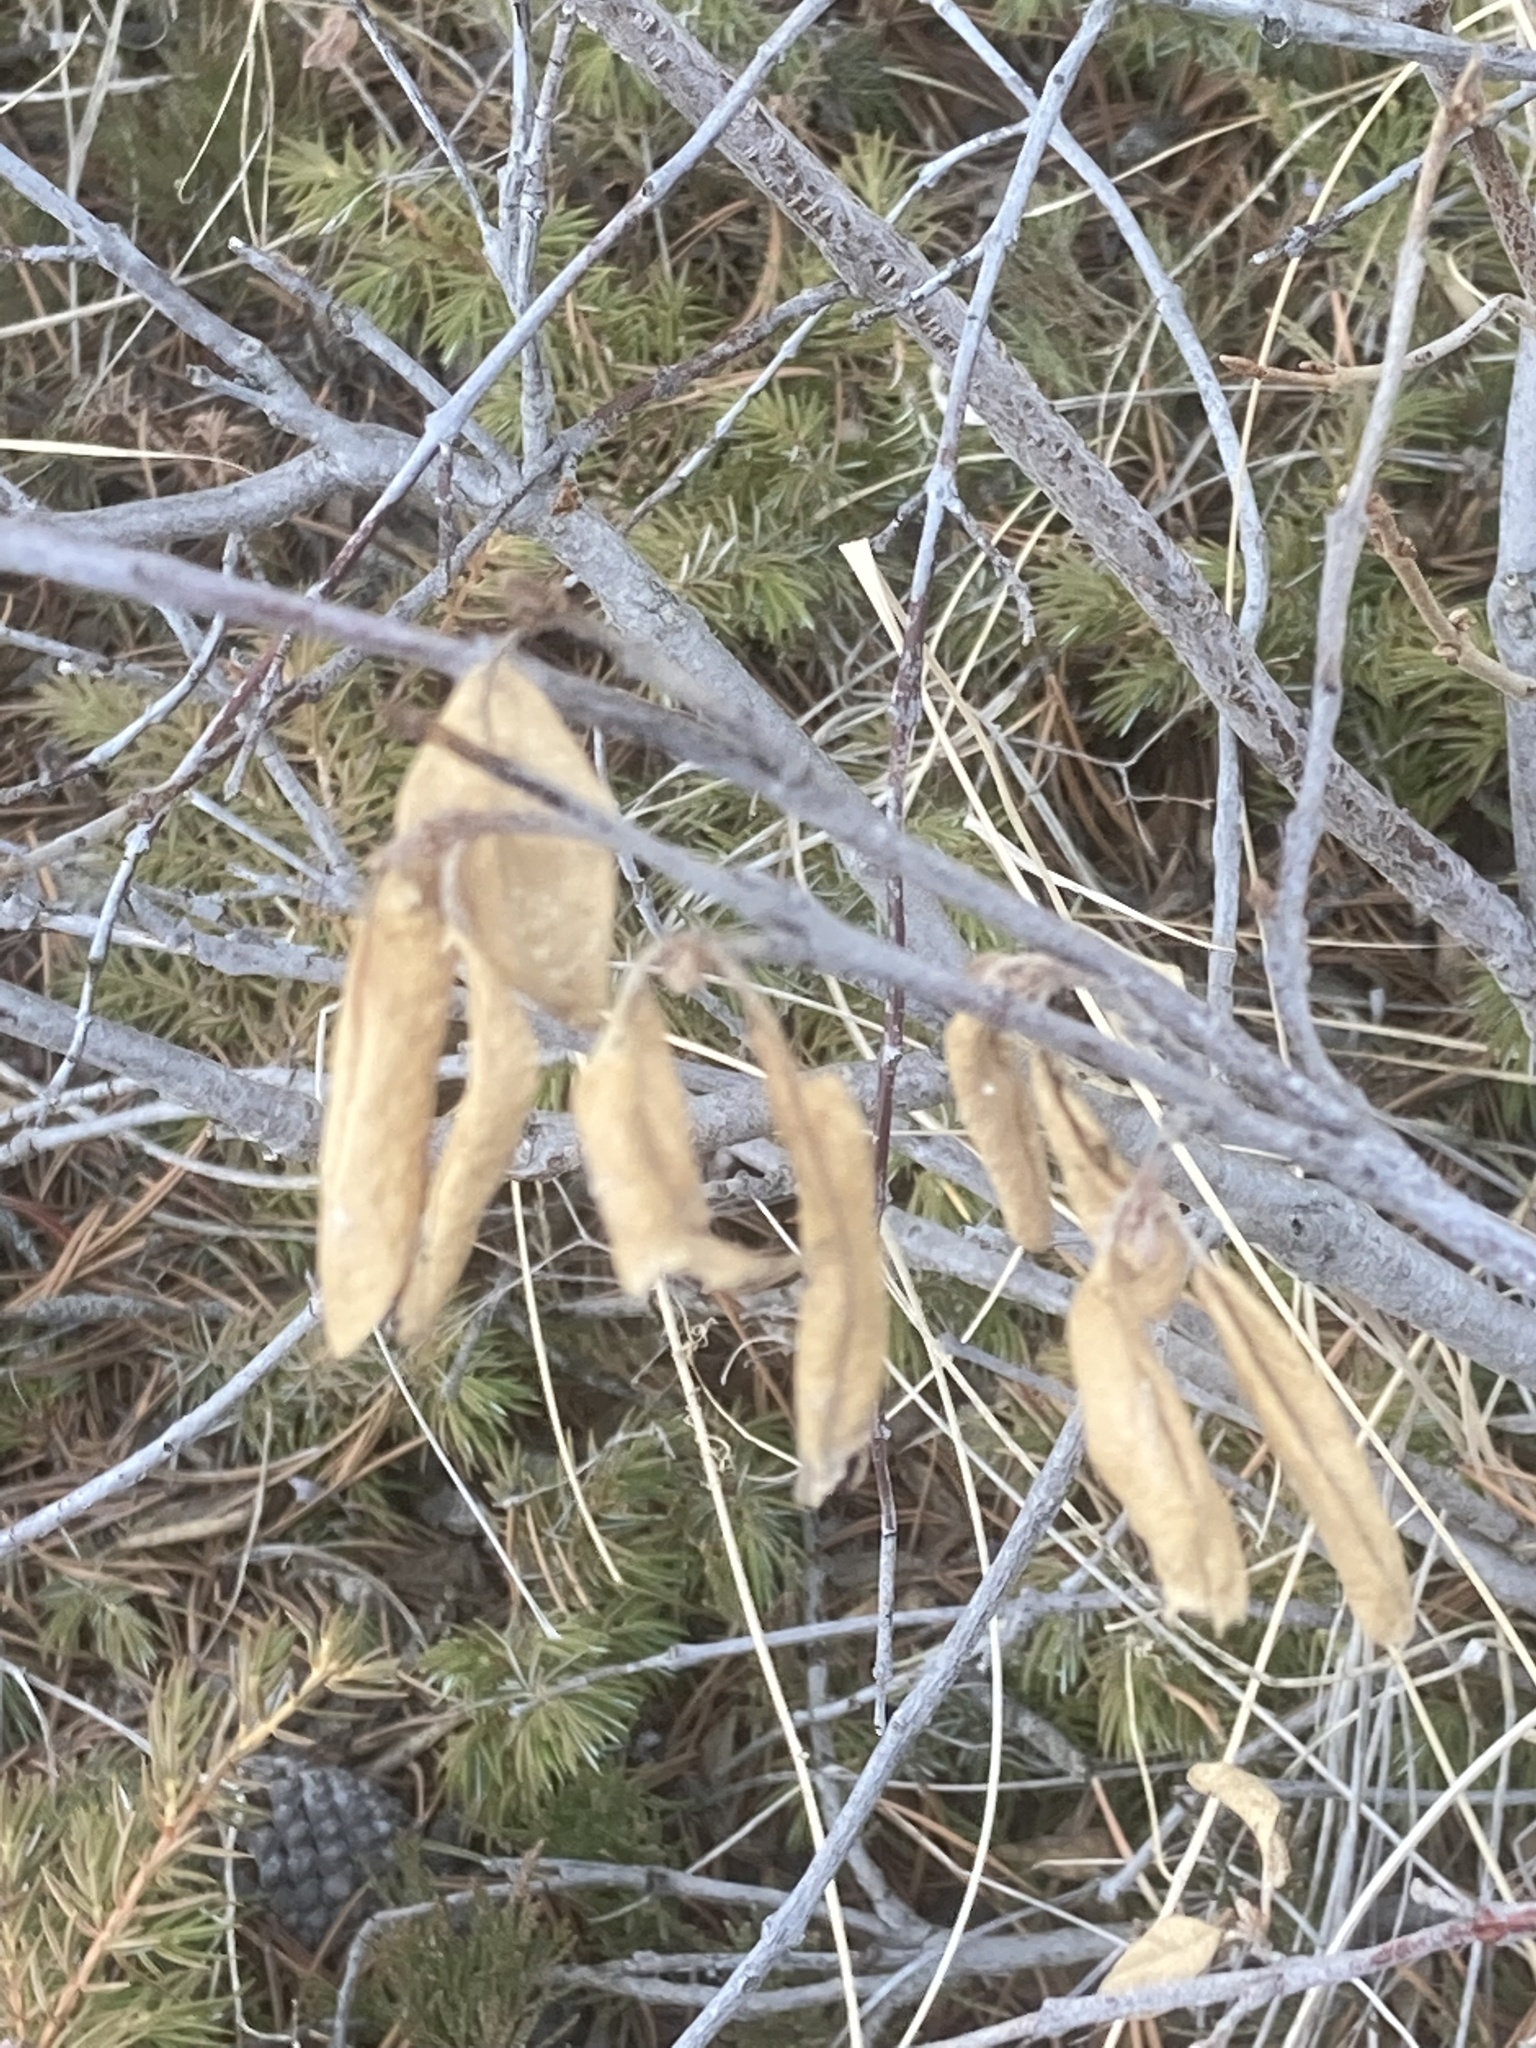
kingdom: Plantae
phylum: Tracheophyta
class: Magnoliopsida
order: Rosales
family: Elaeagnaceae
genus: Shepherdia
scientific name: Shepherdia canadensis
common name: Soapberry
